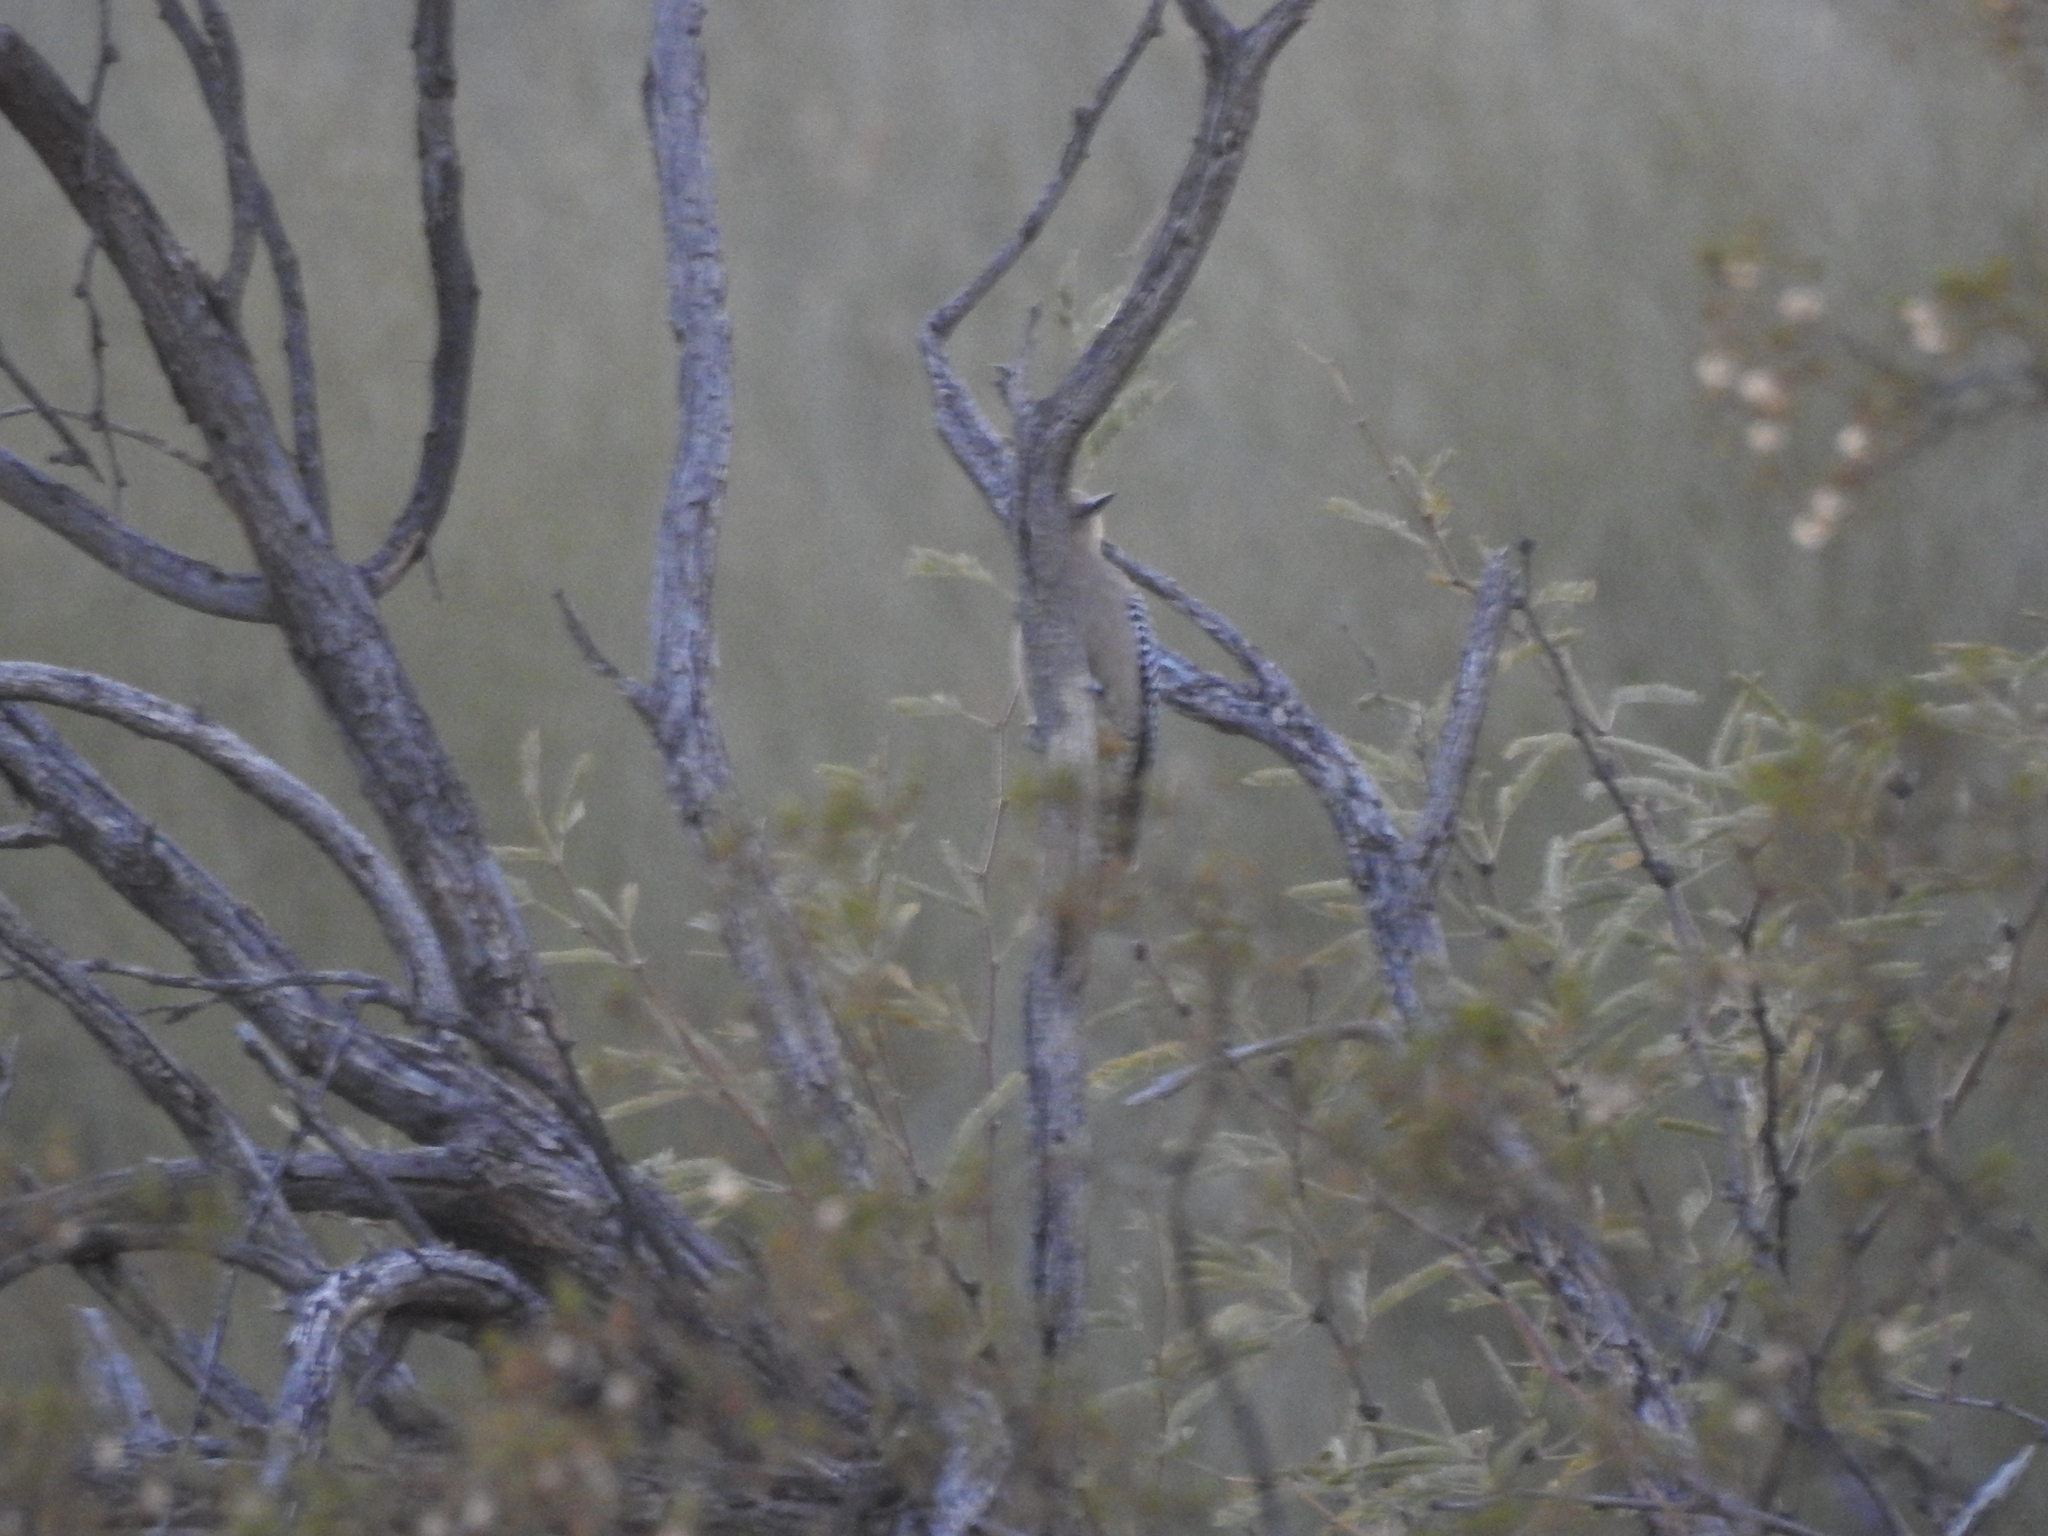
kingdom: Animalia
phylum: Chordata
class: Aves
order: Piciformes
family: Picidae
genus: Melanerpes
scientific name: Melanerpes uropygialis
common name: Gila woodpecker
